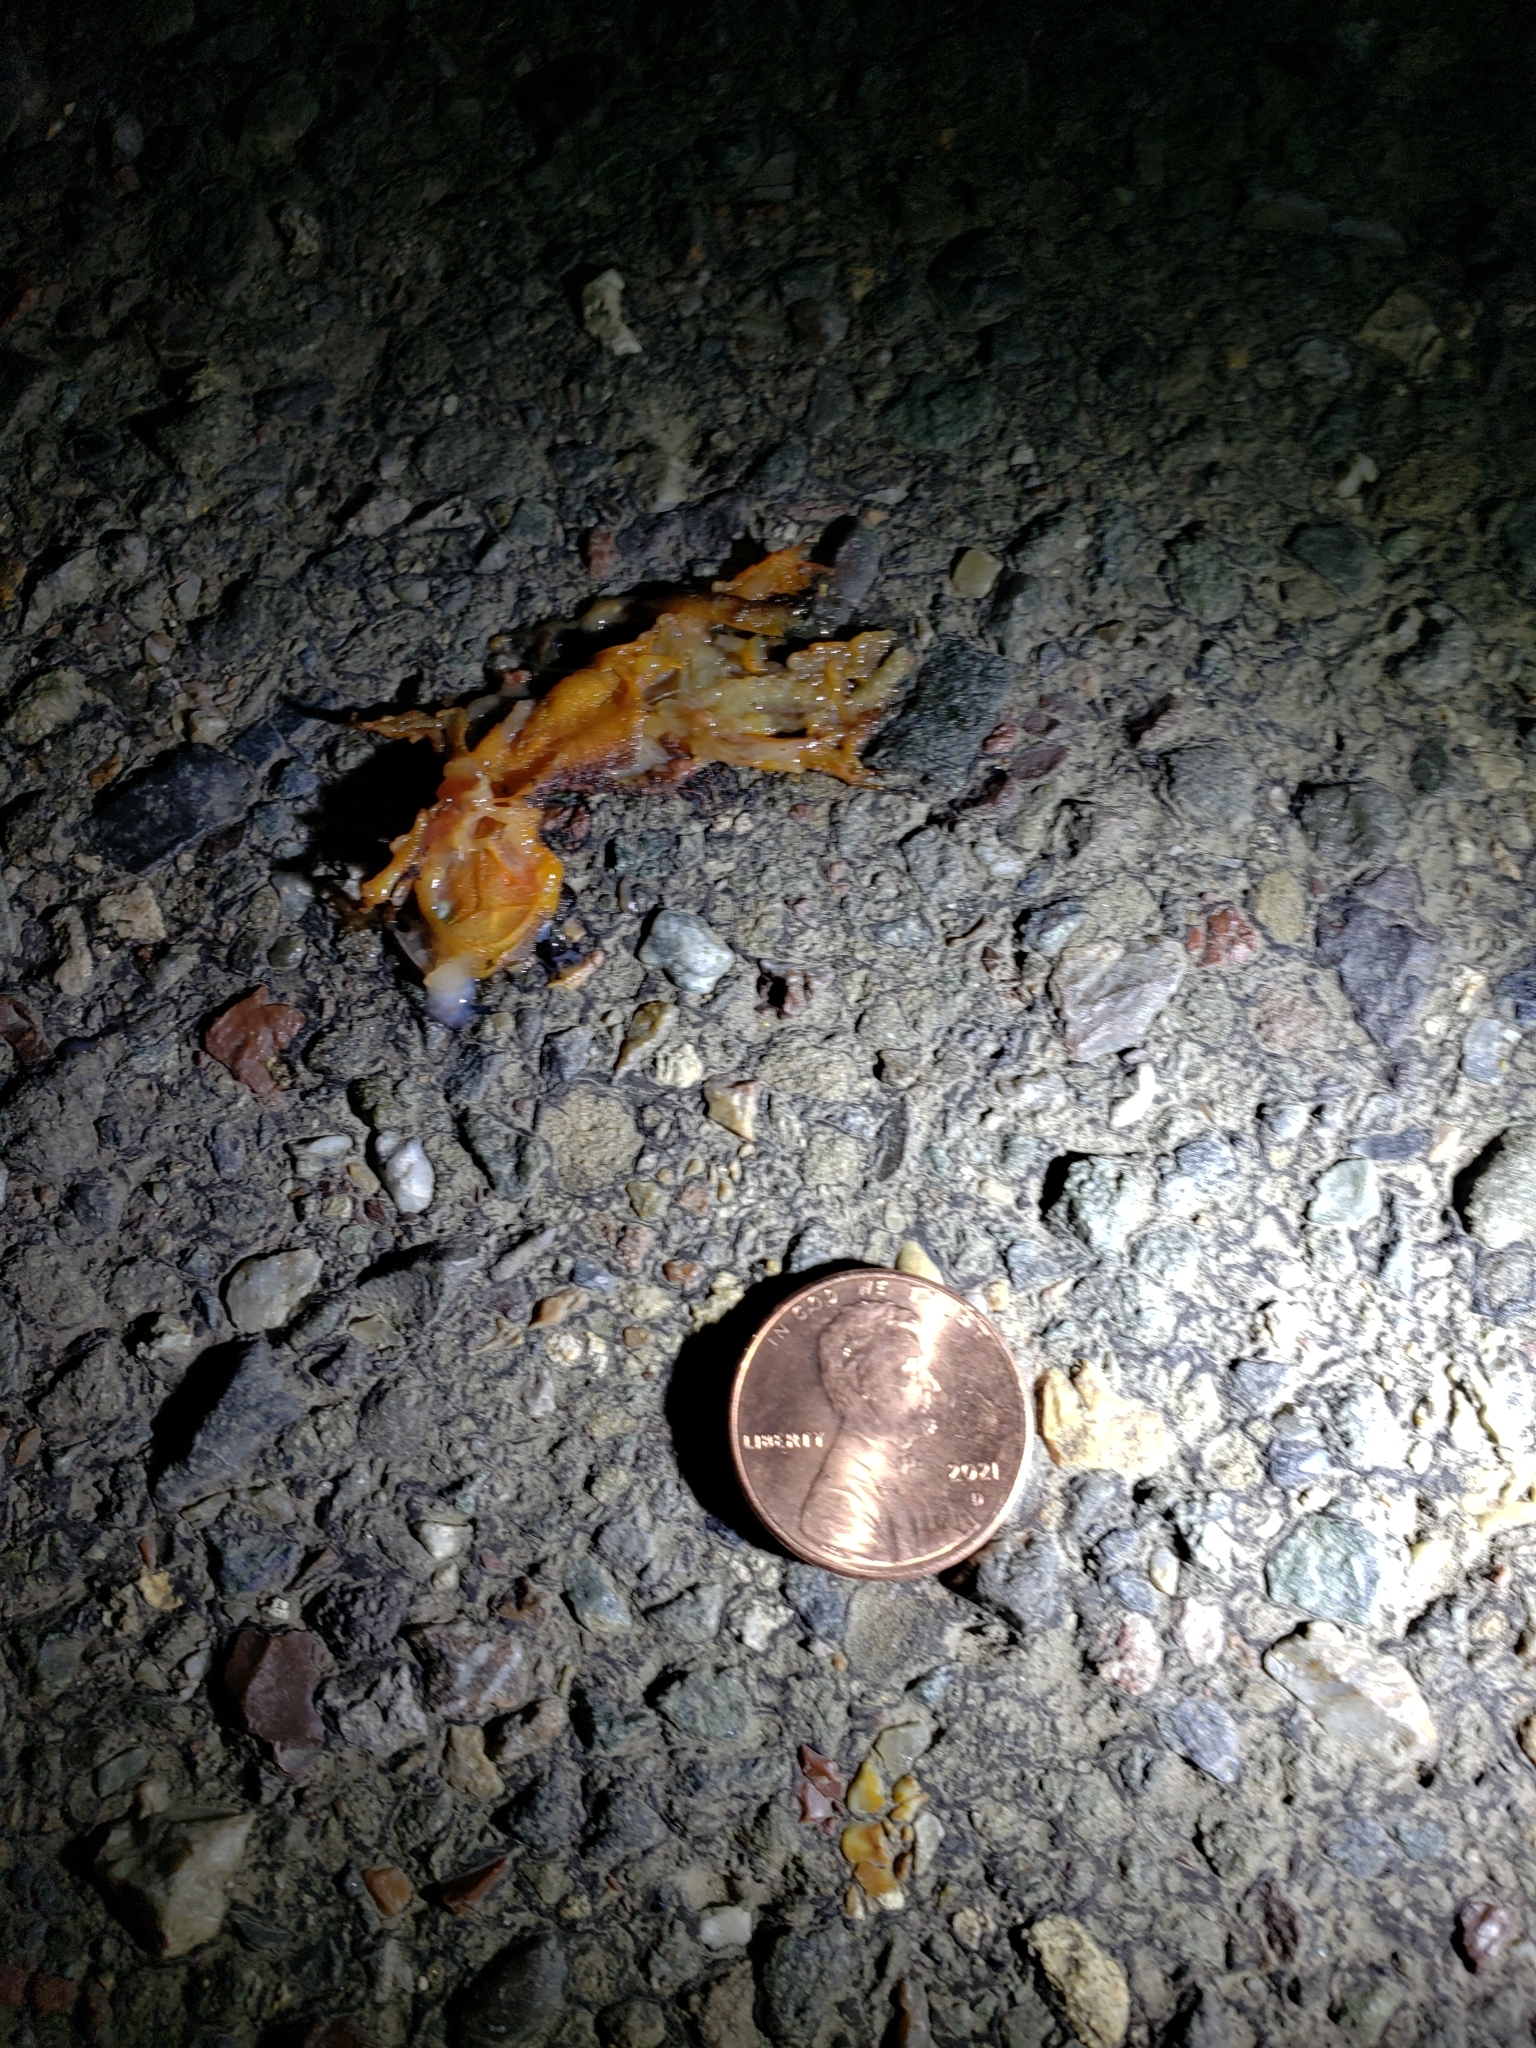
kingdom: Animalia
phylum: Chordata
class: Amphibia
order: Caudata
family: Salamandridae
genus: Taricha
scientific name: Taricha
